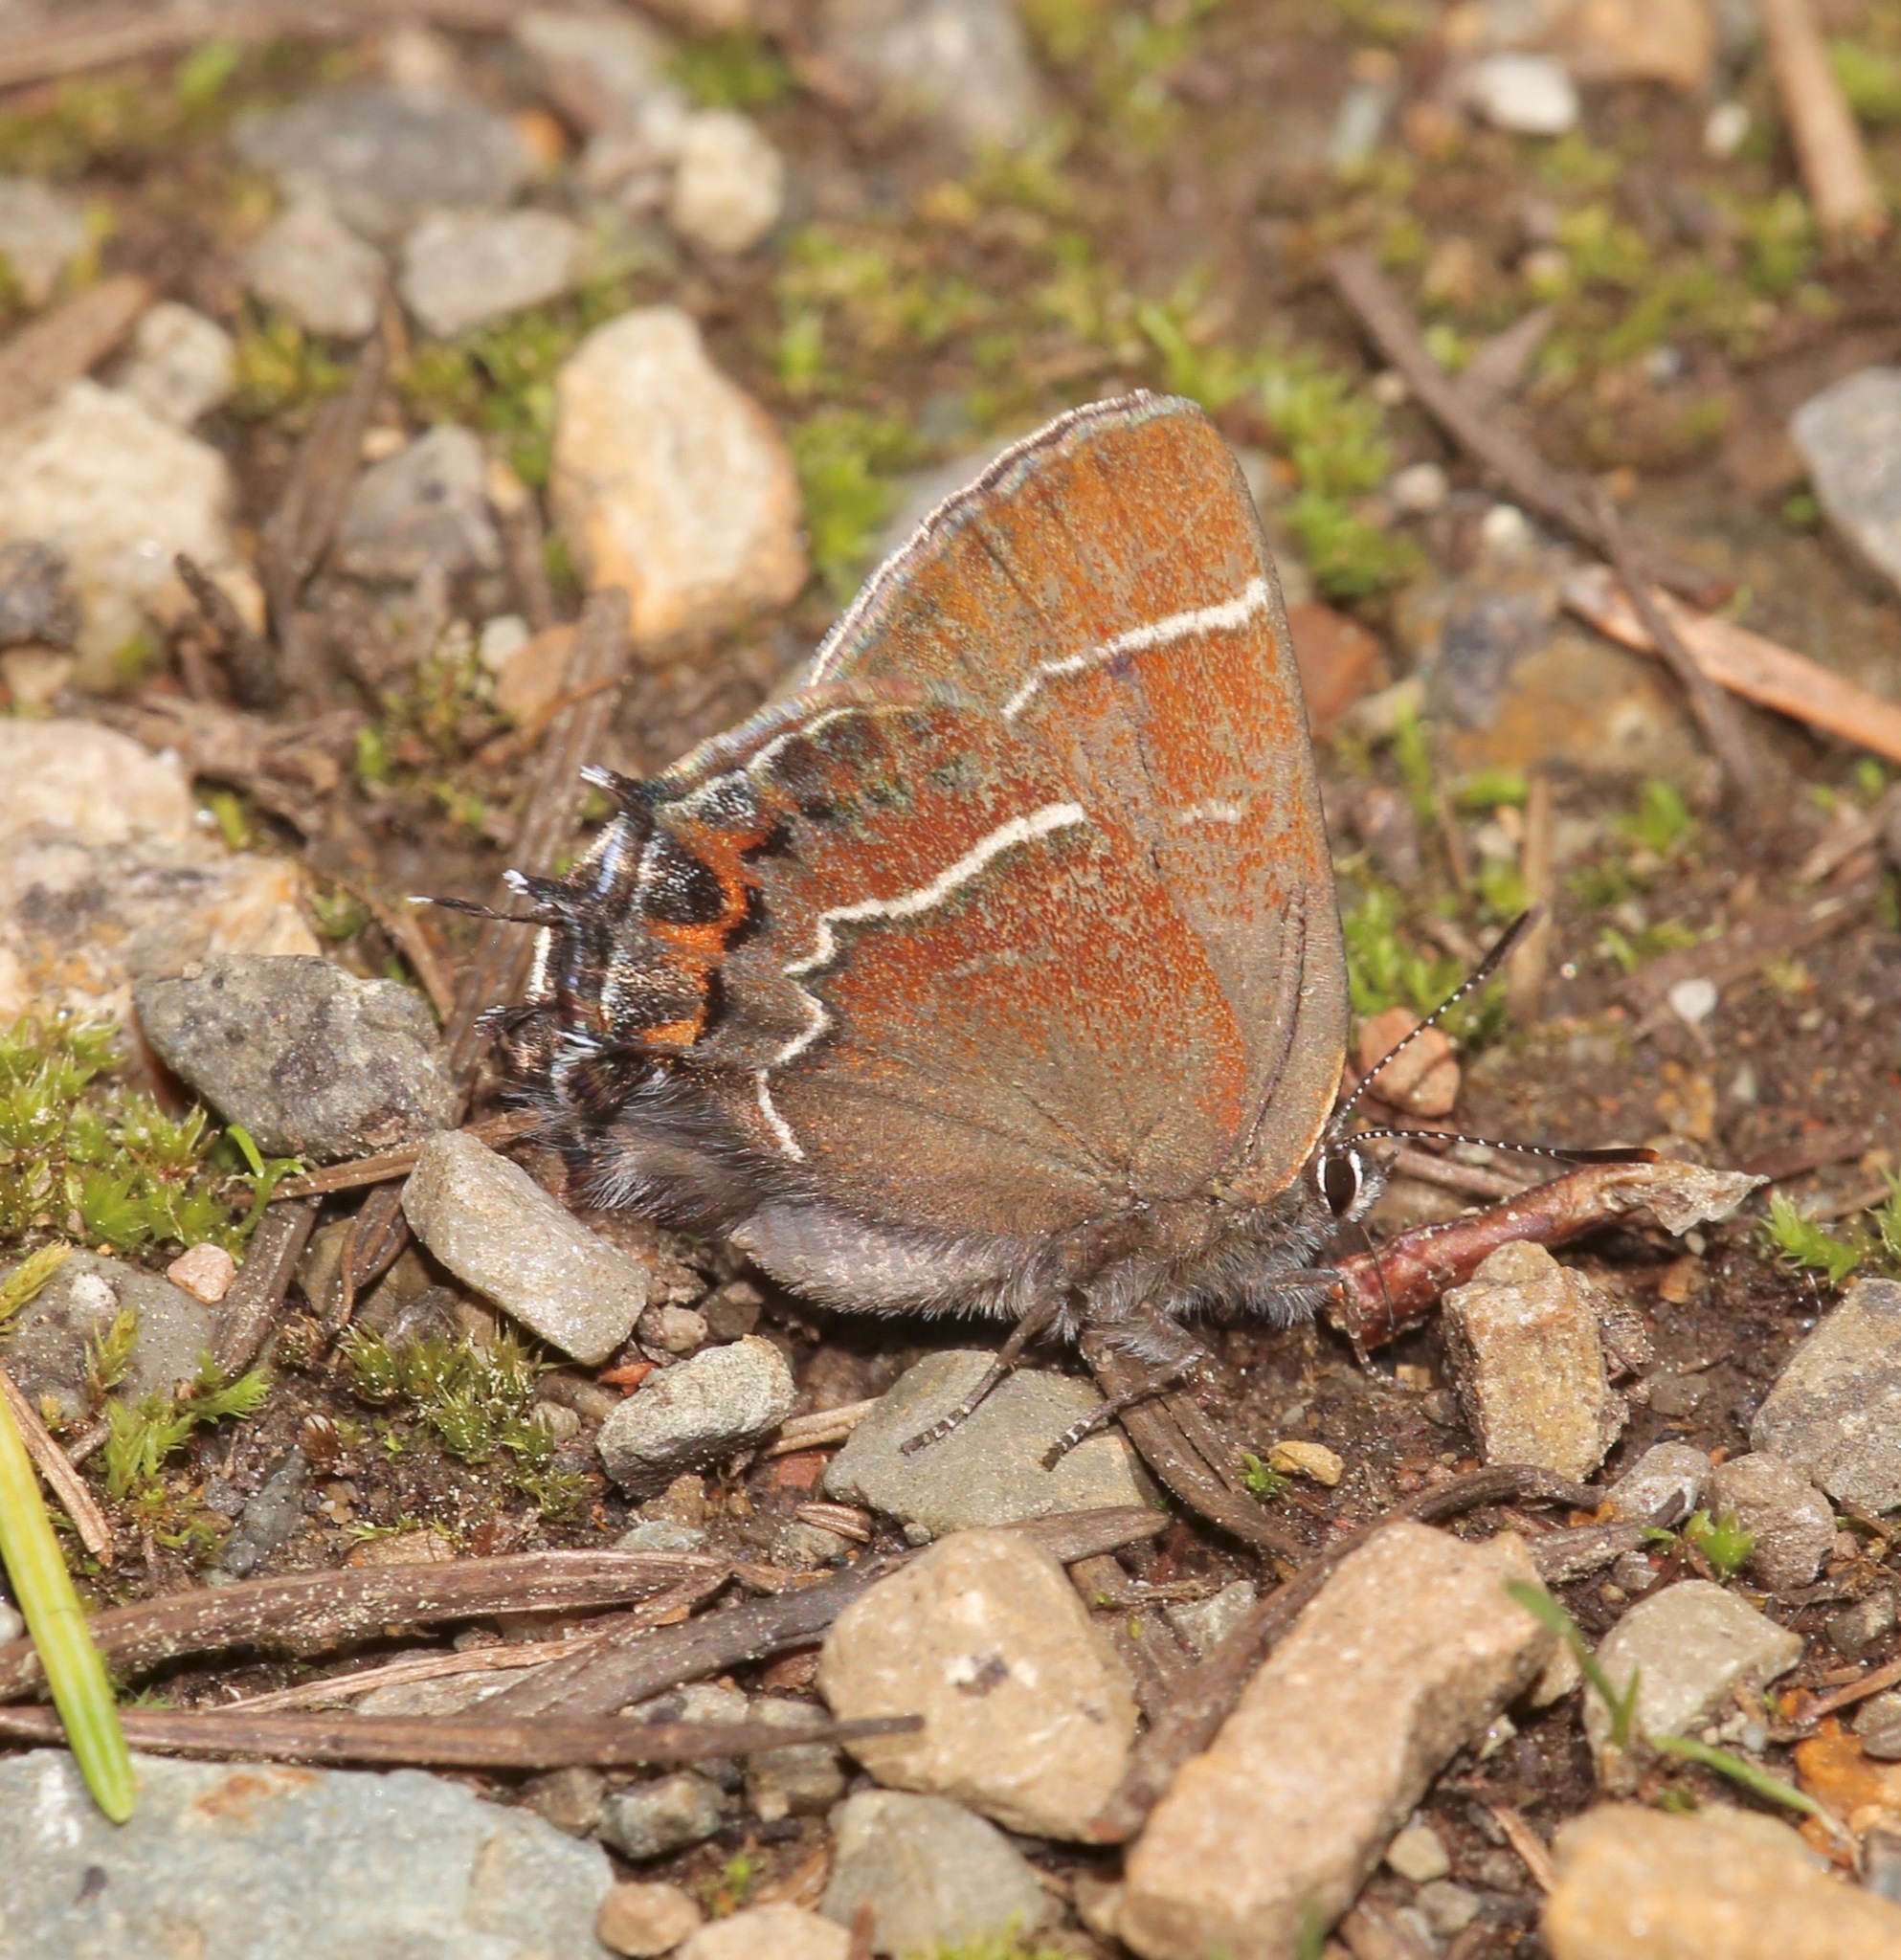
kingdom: Animalia
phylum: Arthropoda
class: Insecta
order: Lepidoptera
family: Lycaenidae
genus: Mitoura
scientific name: Mitoura spinetorum
